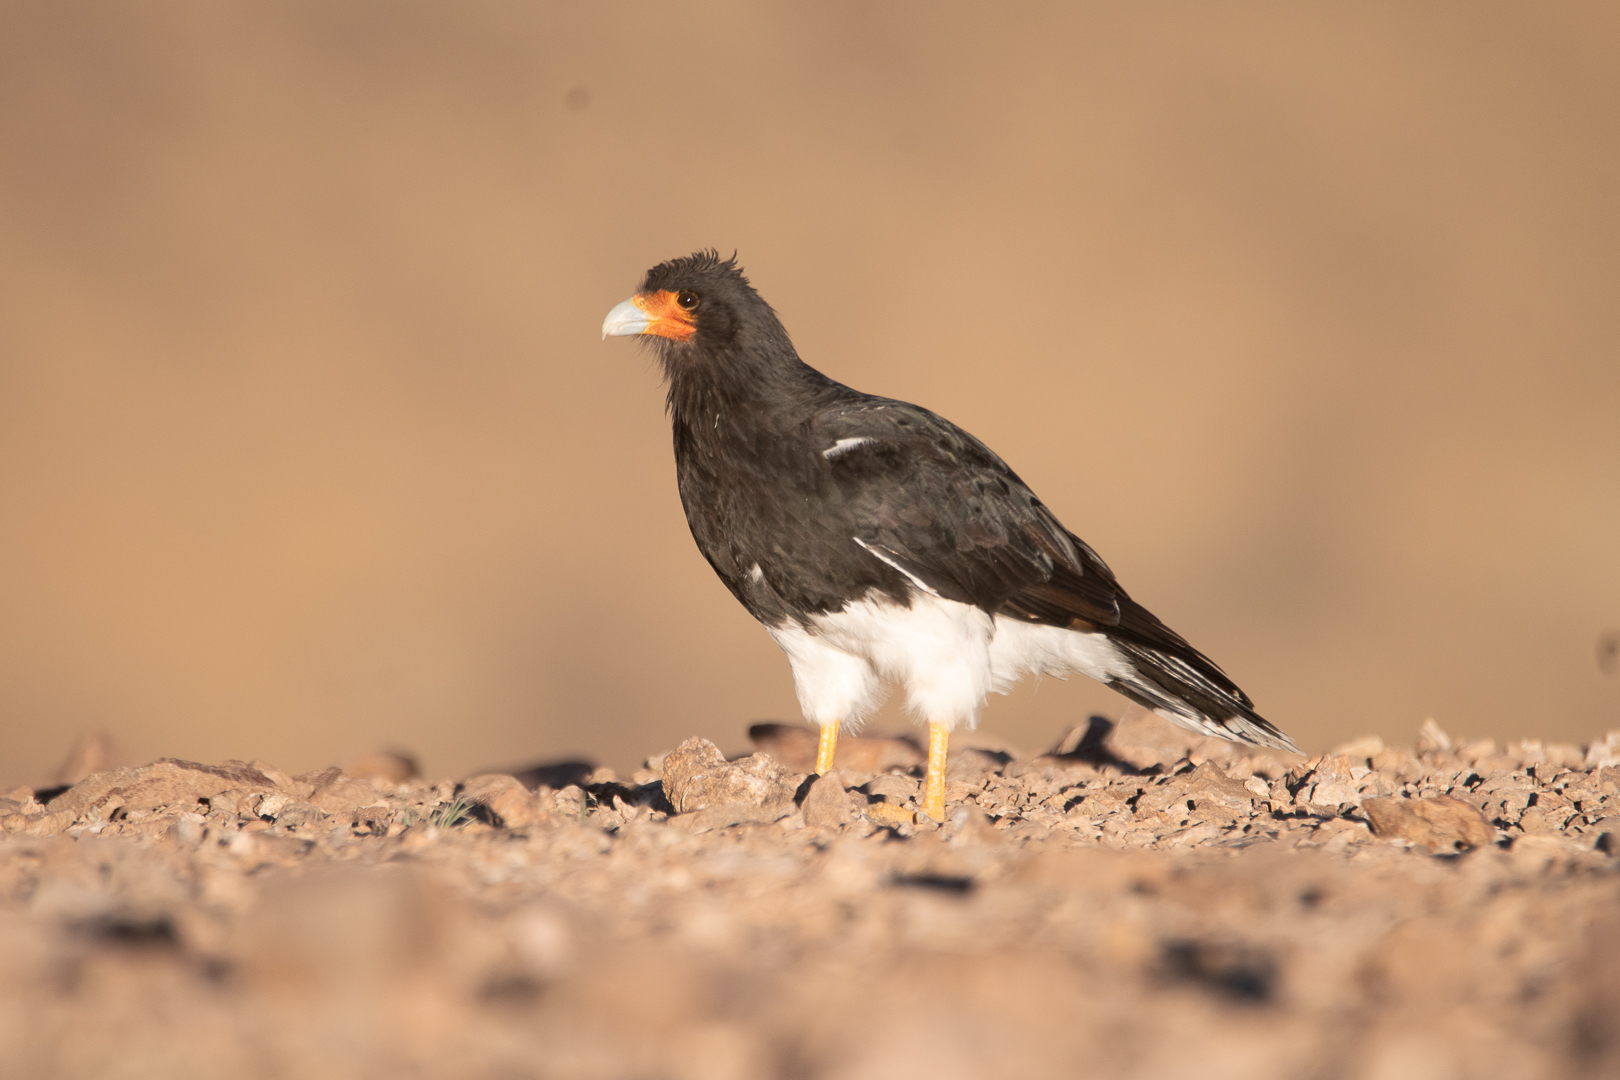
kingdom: Animalia
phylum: Chordata
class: Aves
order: Falconiformes
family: Falconidae
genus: Daptrius
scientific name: Daptrius
